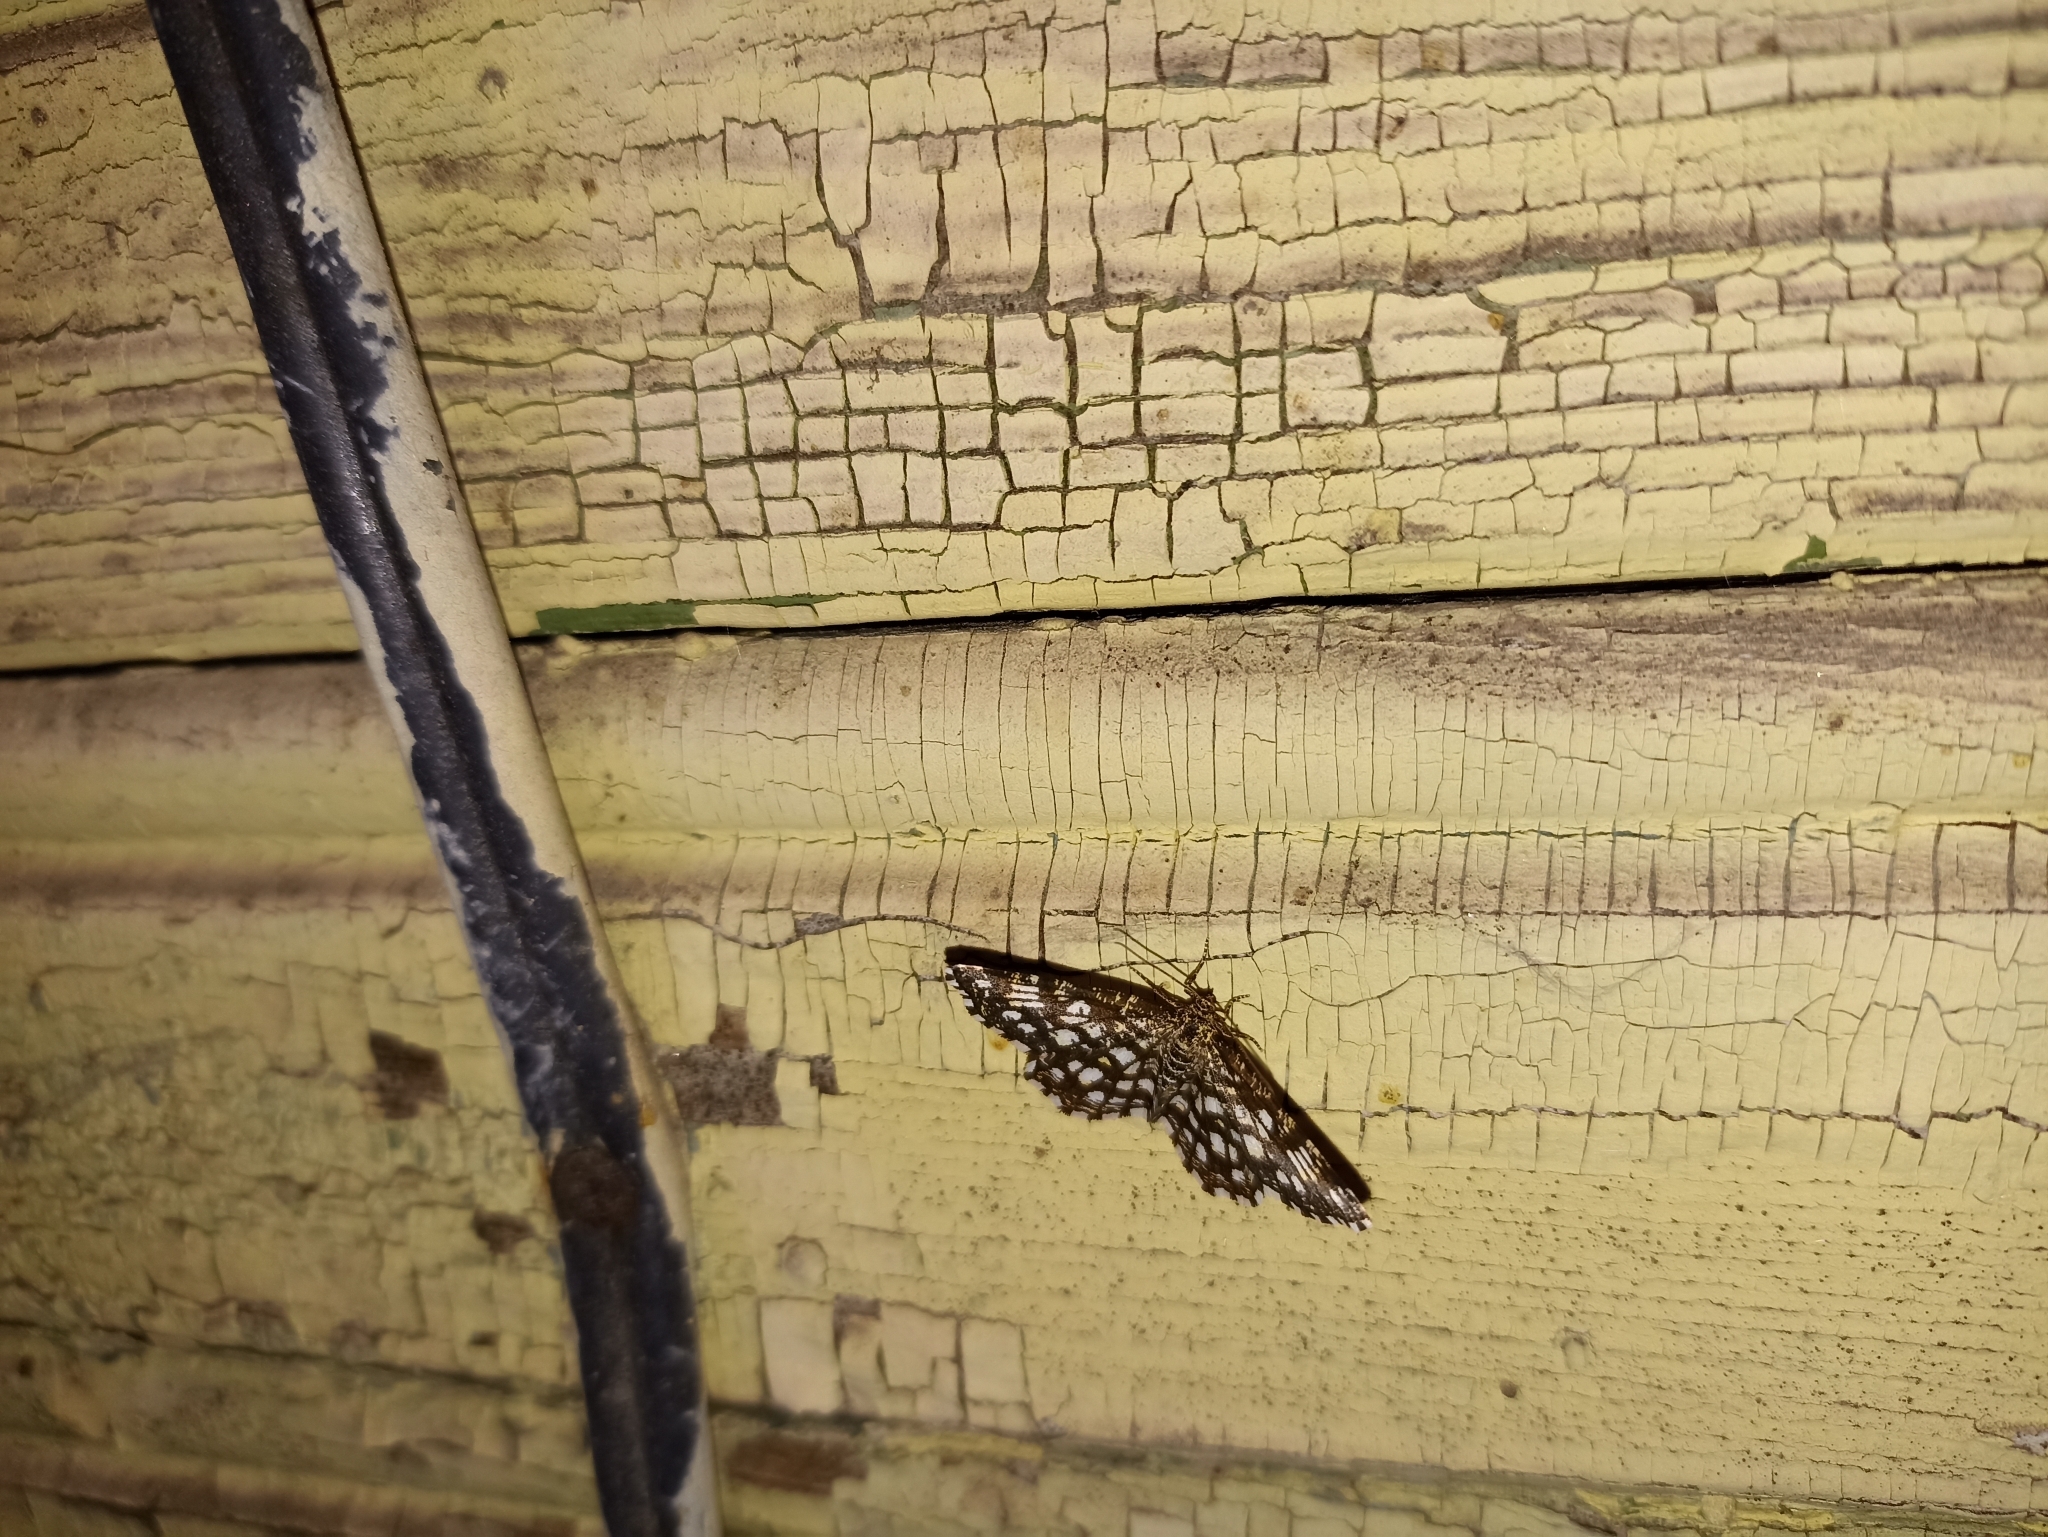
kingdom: Animalia
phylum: Arthropoda
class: Insecta
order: Lepidoptera
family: Geometridae
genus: Chiasmia
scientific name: Chiasmia clathrata
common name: Latticed heath
